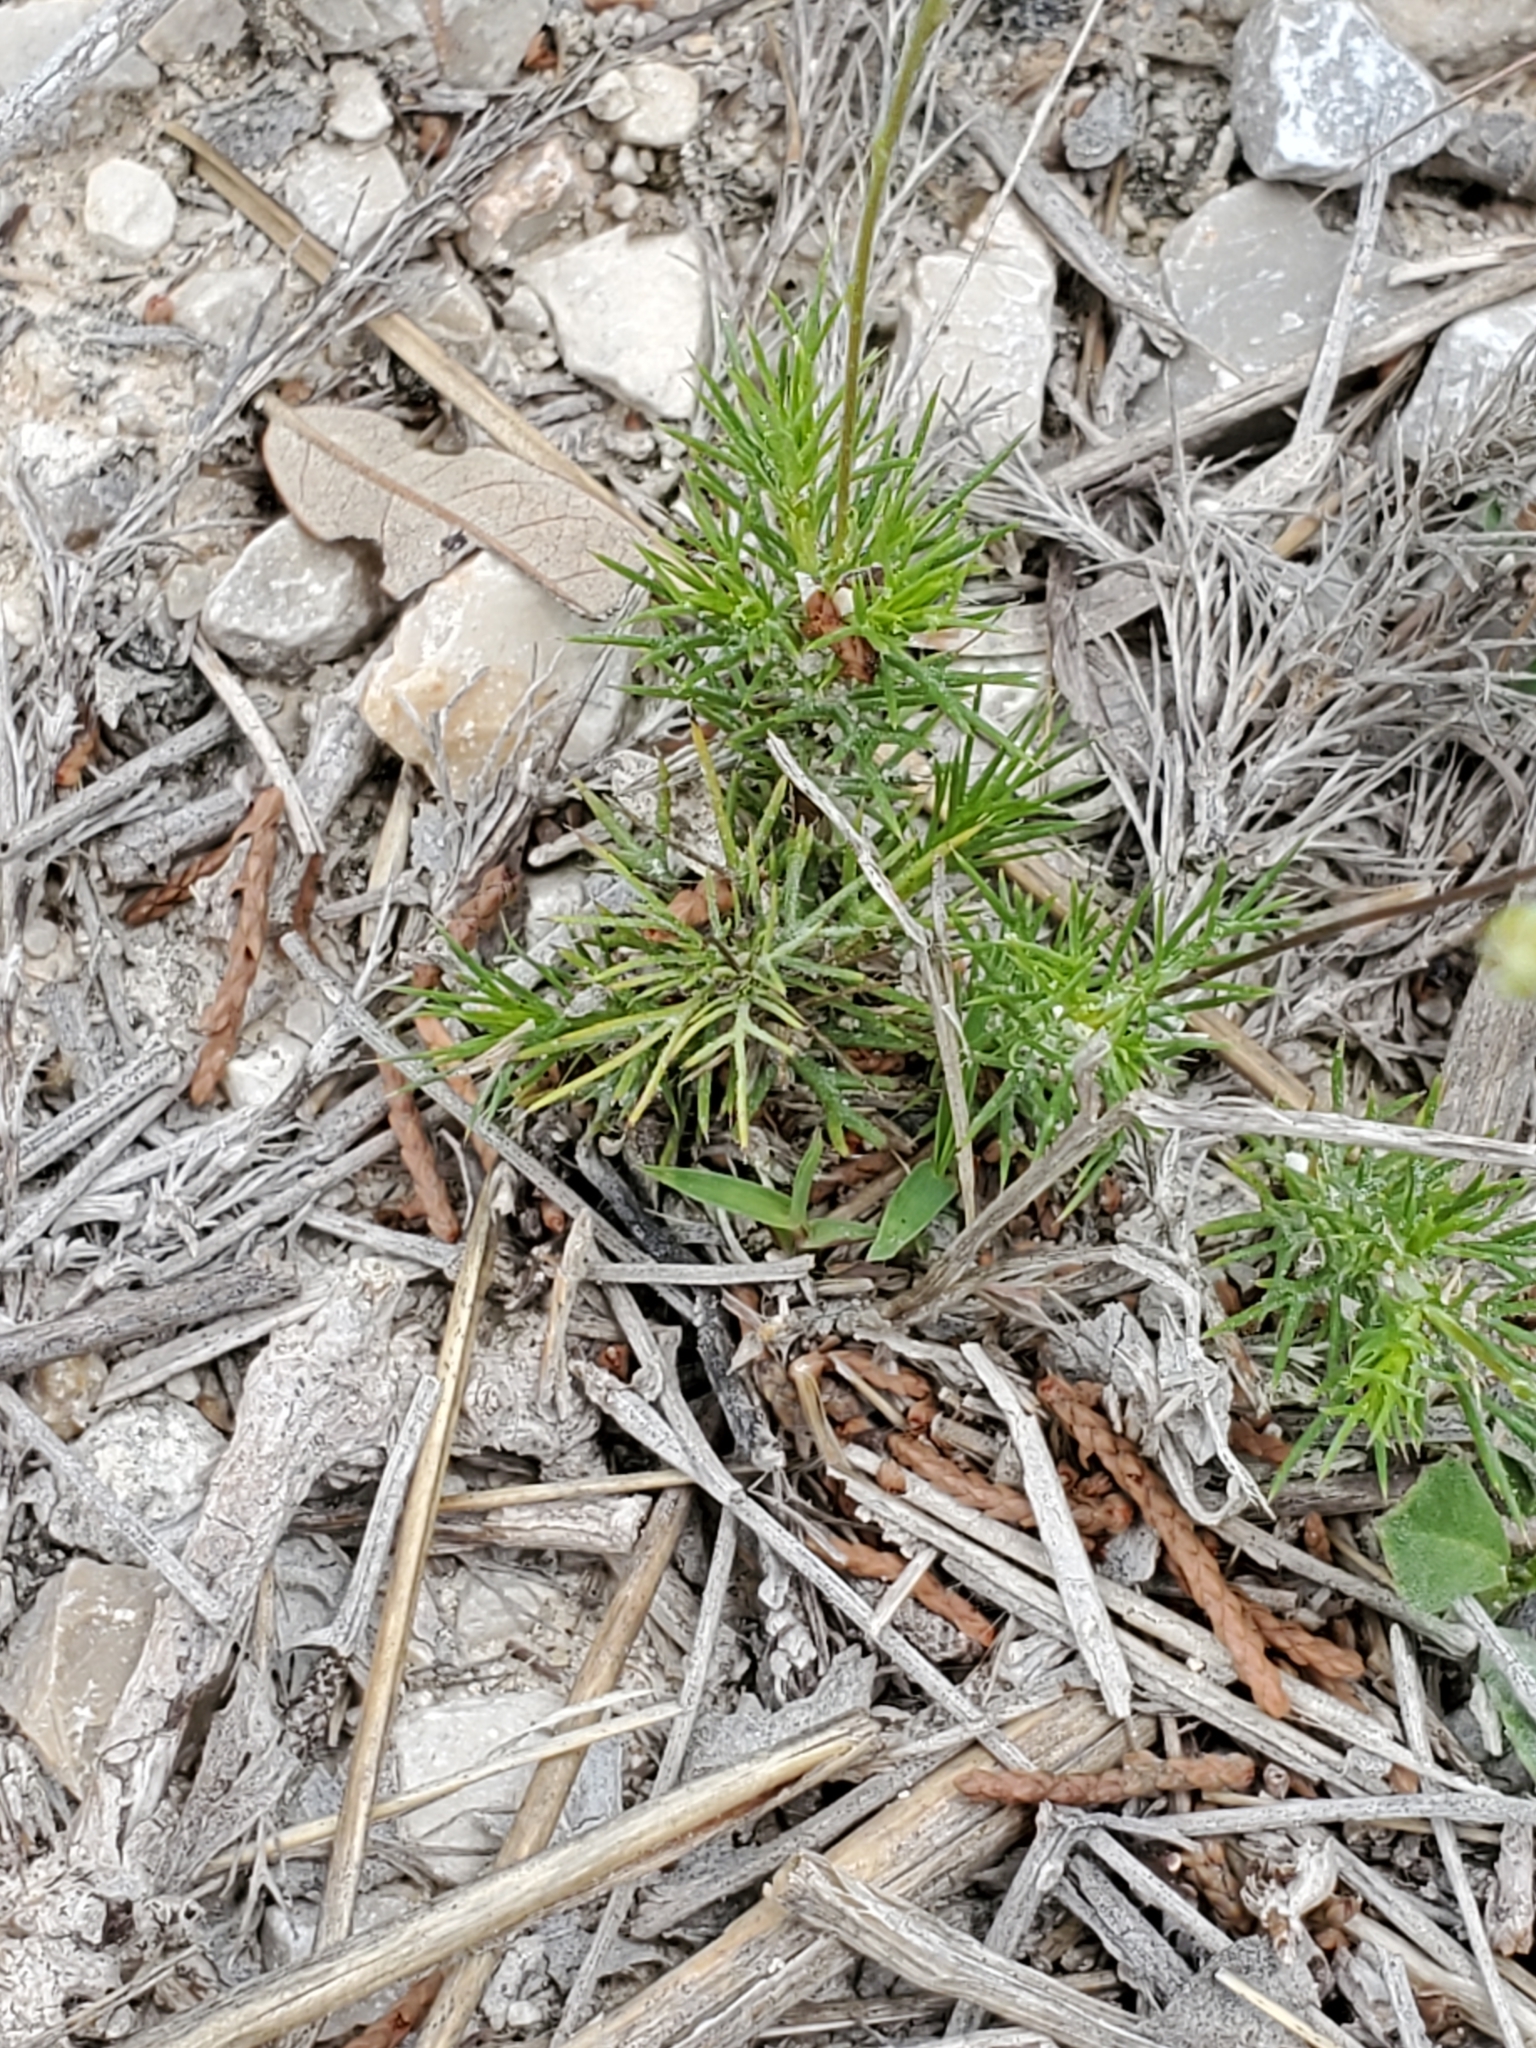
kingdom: Plantae
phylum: Tracheophyta
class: Magnoliopsida
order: Asterales
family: Asteraceae
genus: Thymophylla
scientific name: Thymophylla pentachaeta
